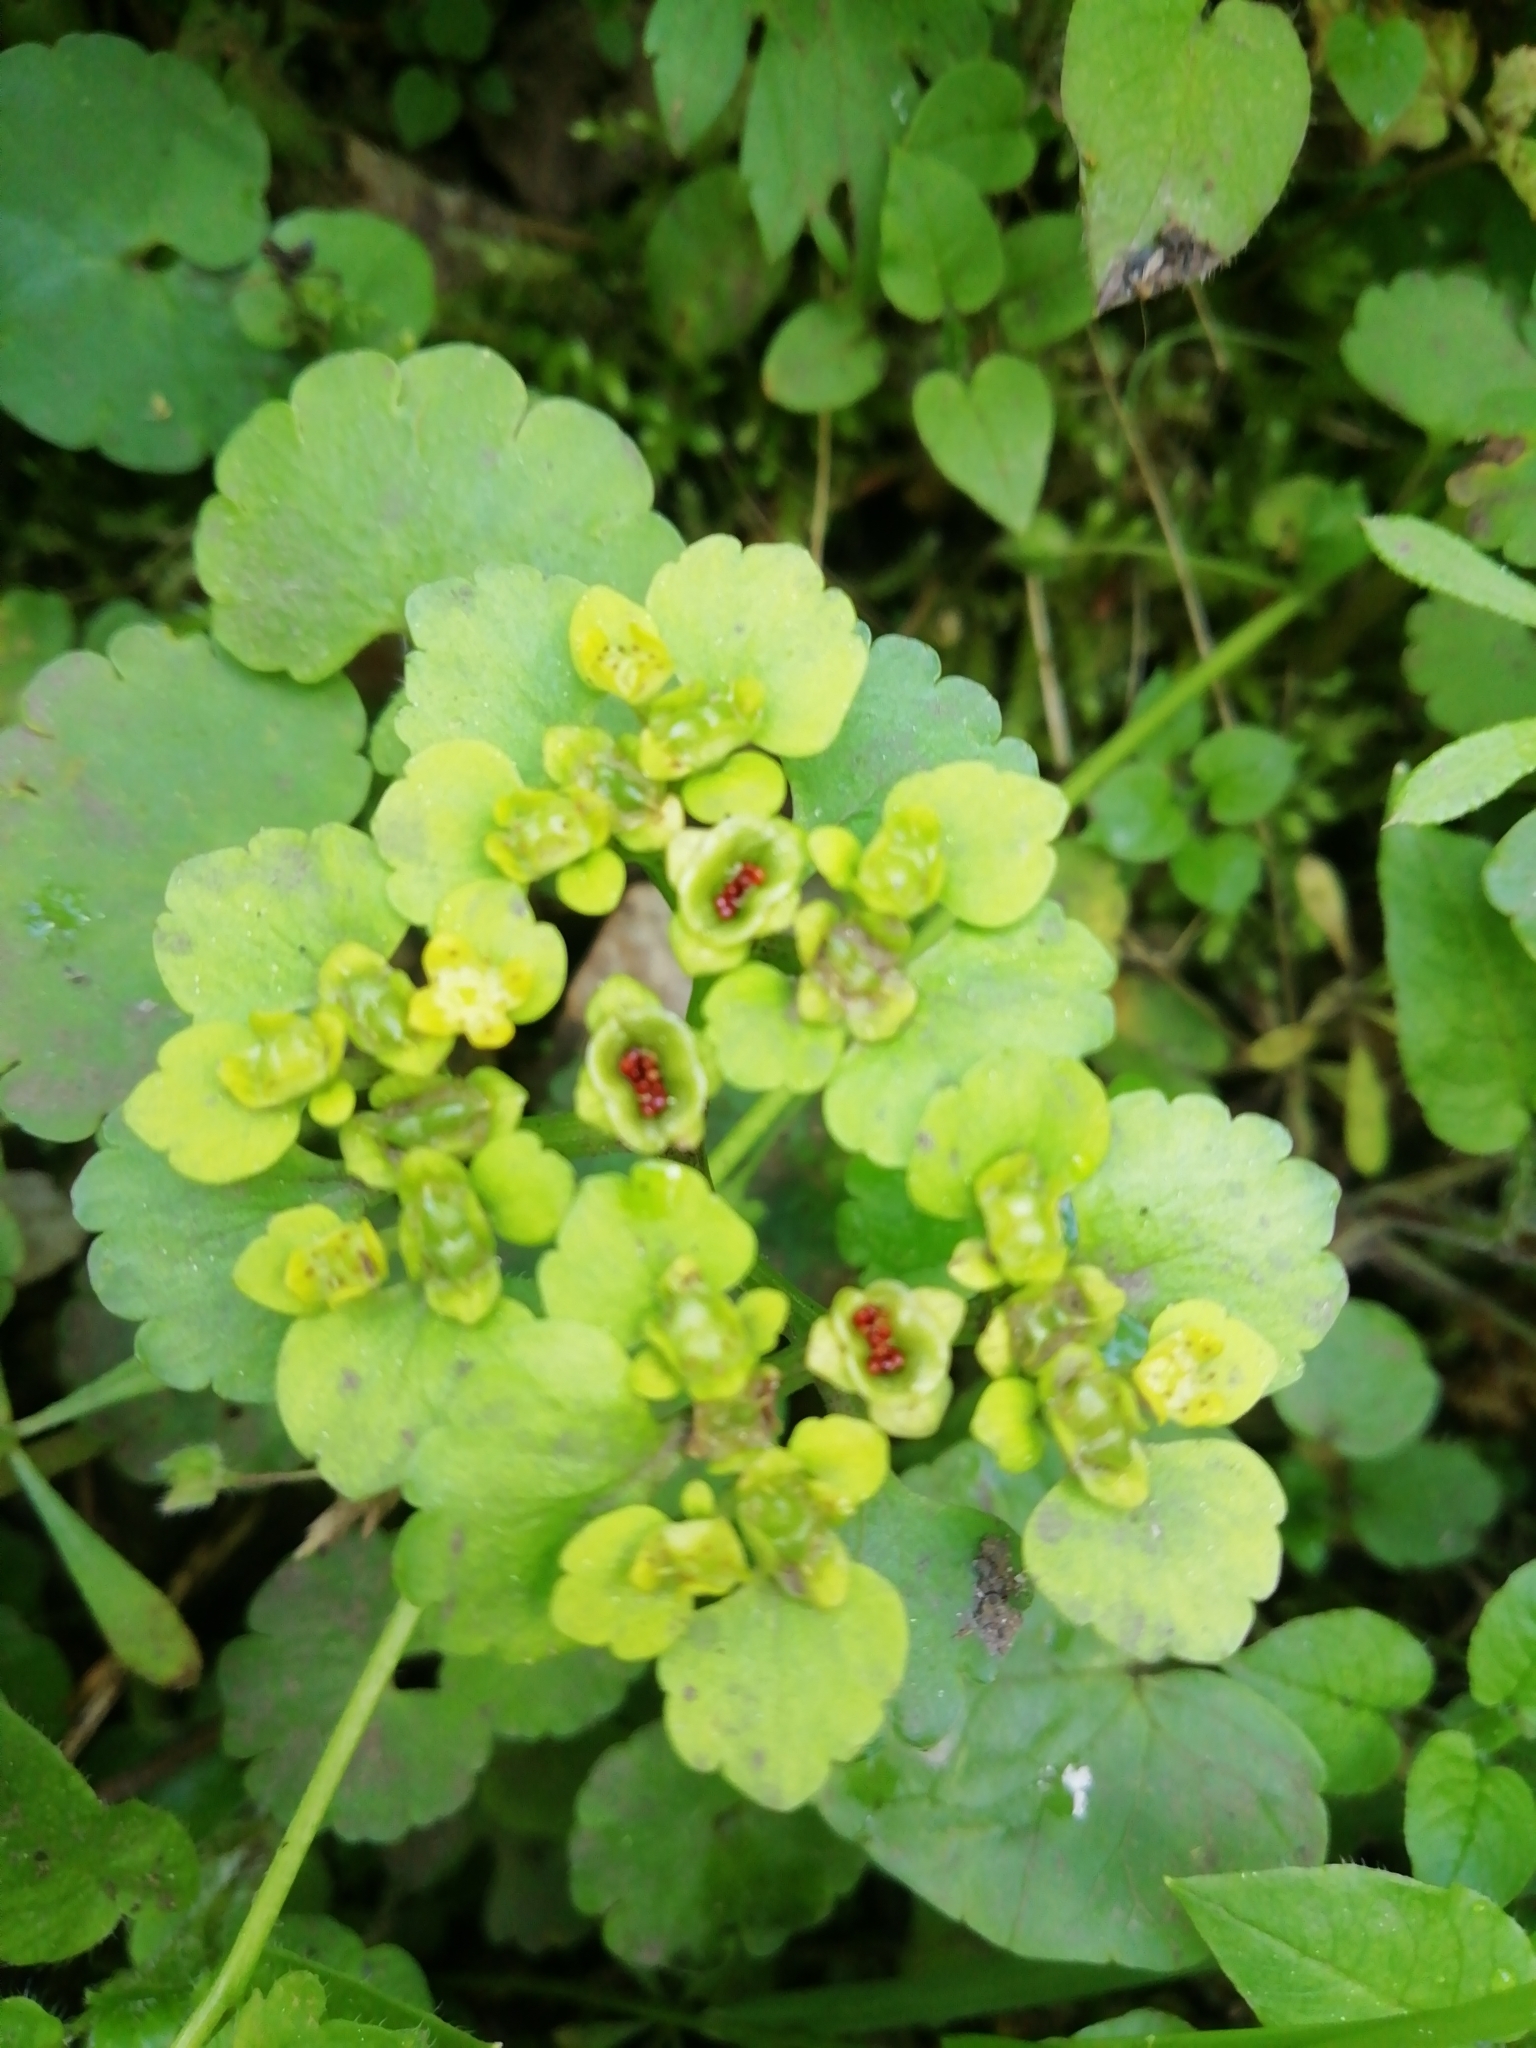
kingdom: Plantae
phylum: Tracheophyta
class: Magnoliopsida
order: Saxifragales
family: Saxifragaceae
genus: Chrysosplenium
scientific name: Chrysosplenium alternifolium
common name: Alternate-leaved golden-saxifrage
